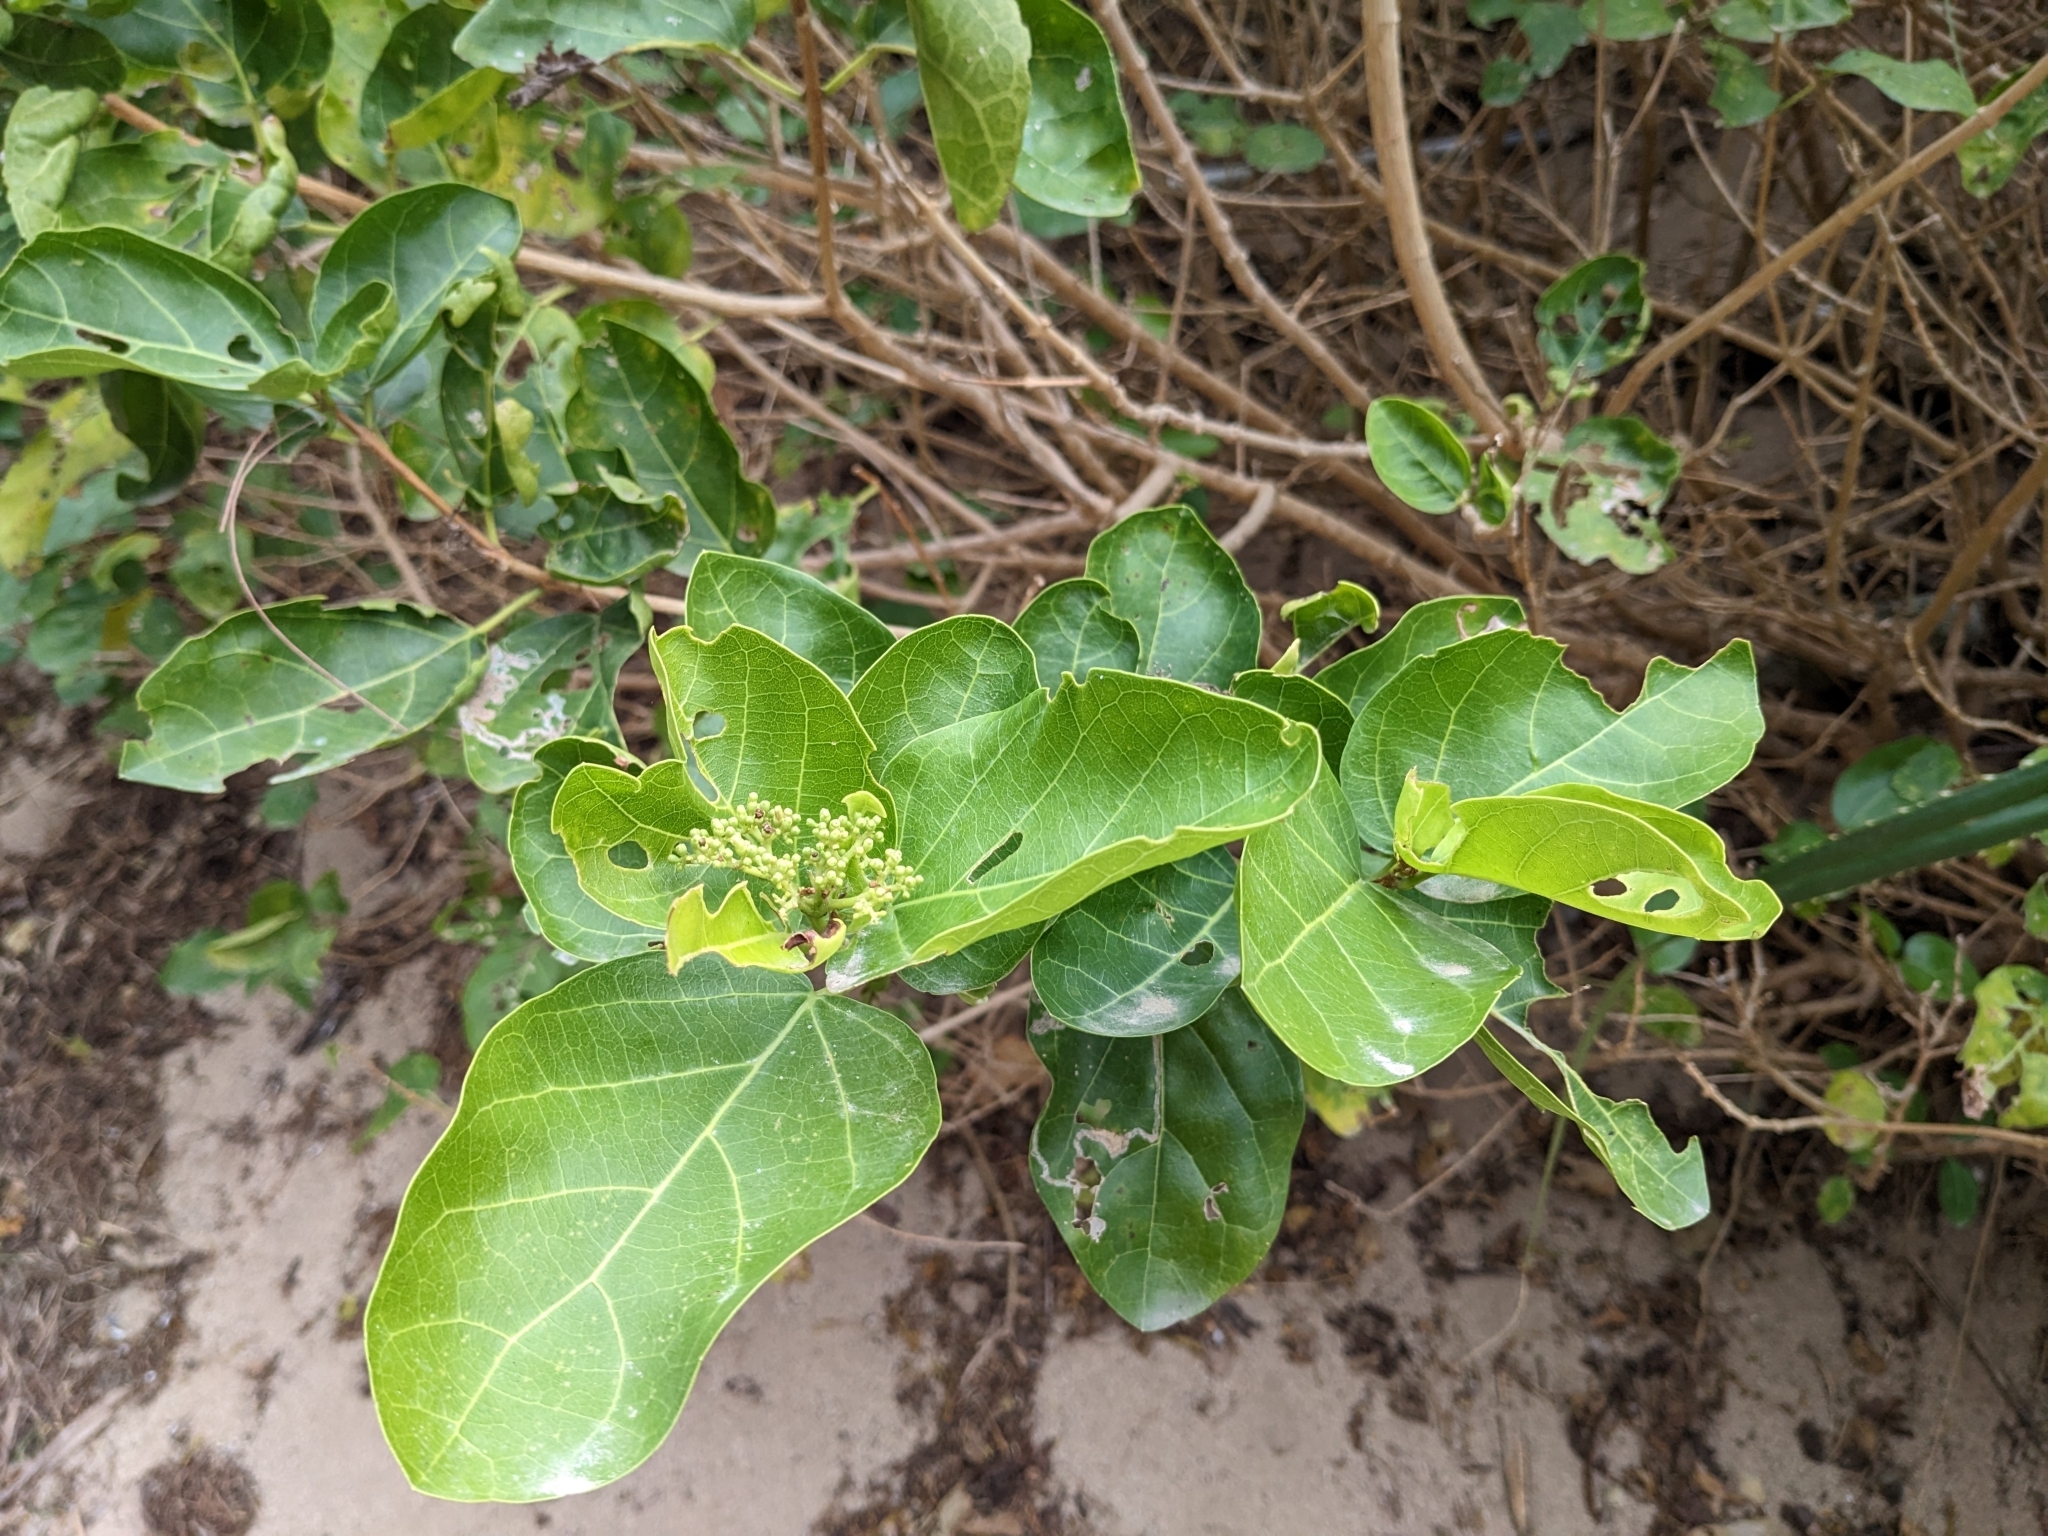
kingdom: Plantae
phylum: Tracheophyta
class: Magnoliopsida
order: Lamiales
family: Lamiaceae
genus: Premna
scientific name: Premna serratifolia
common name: Bastard guelder
